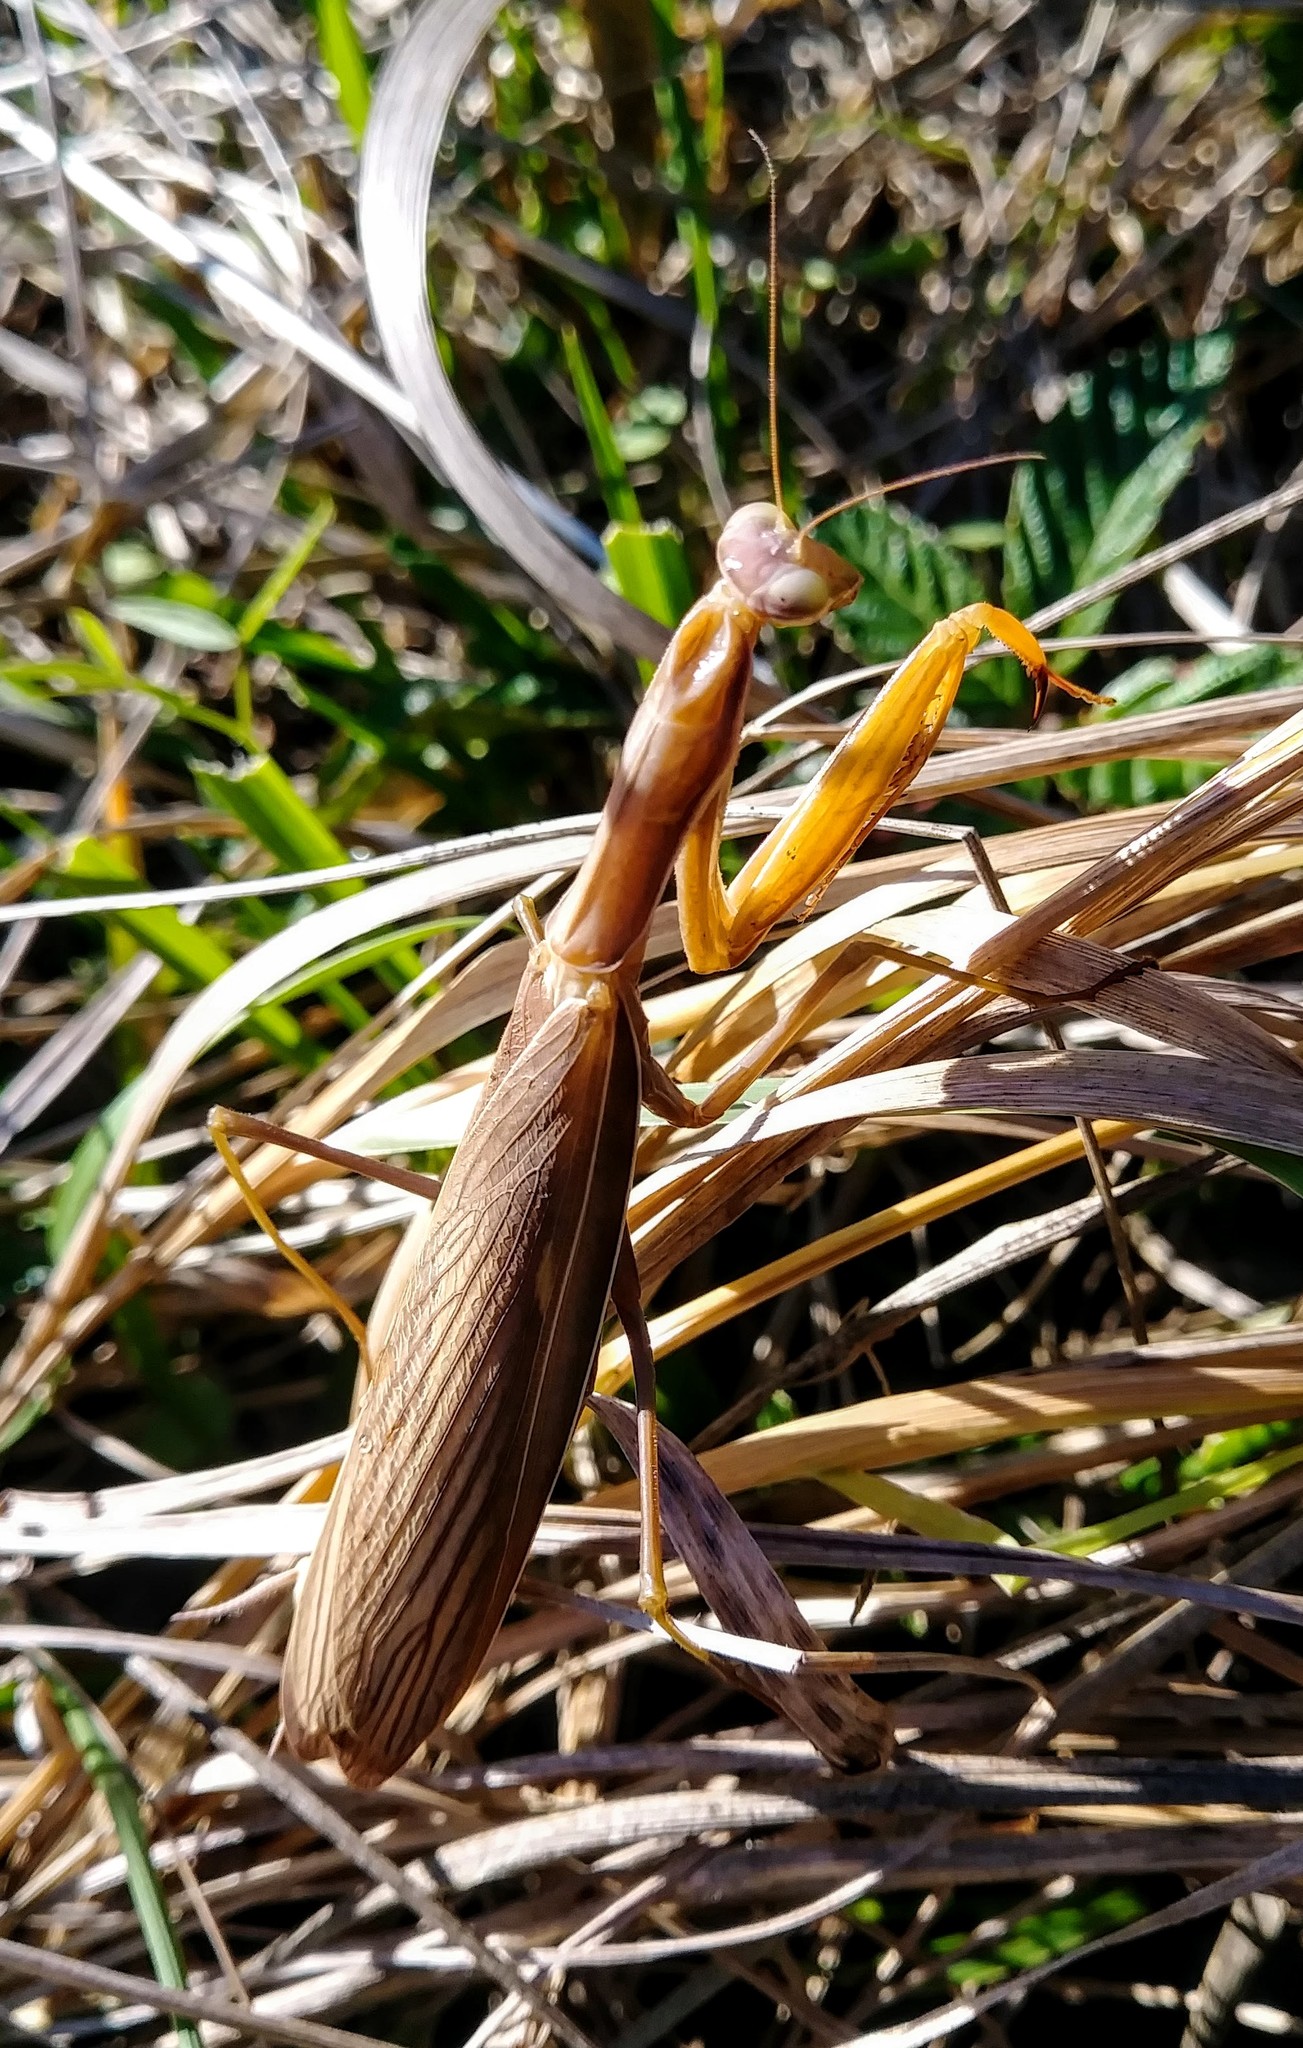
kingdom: Animalia
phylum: Arthropoda
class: Insecta
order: Mantodea
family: Mantidae
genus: Mantis
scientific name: Mantis religiosa
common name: Praying mantis
